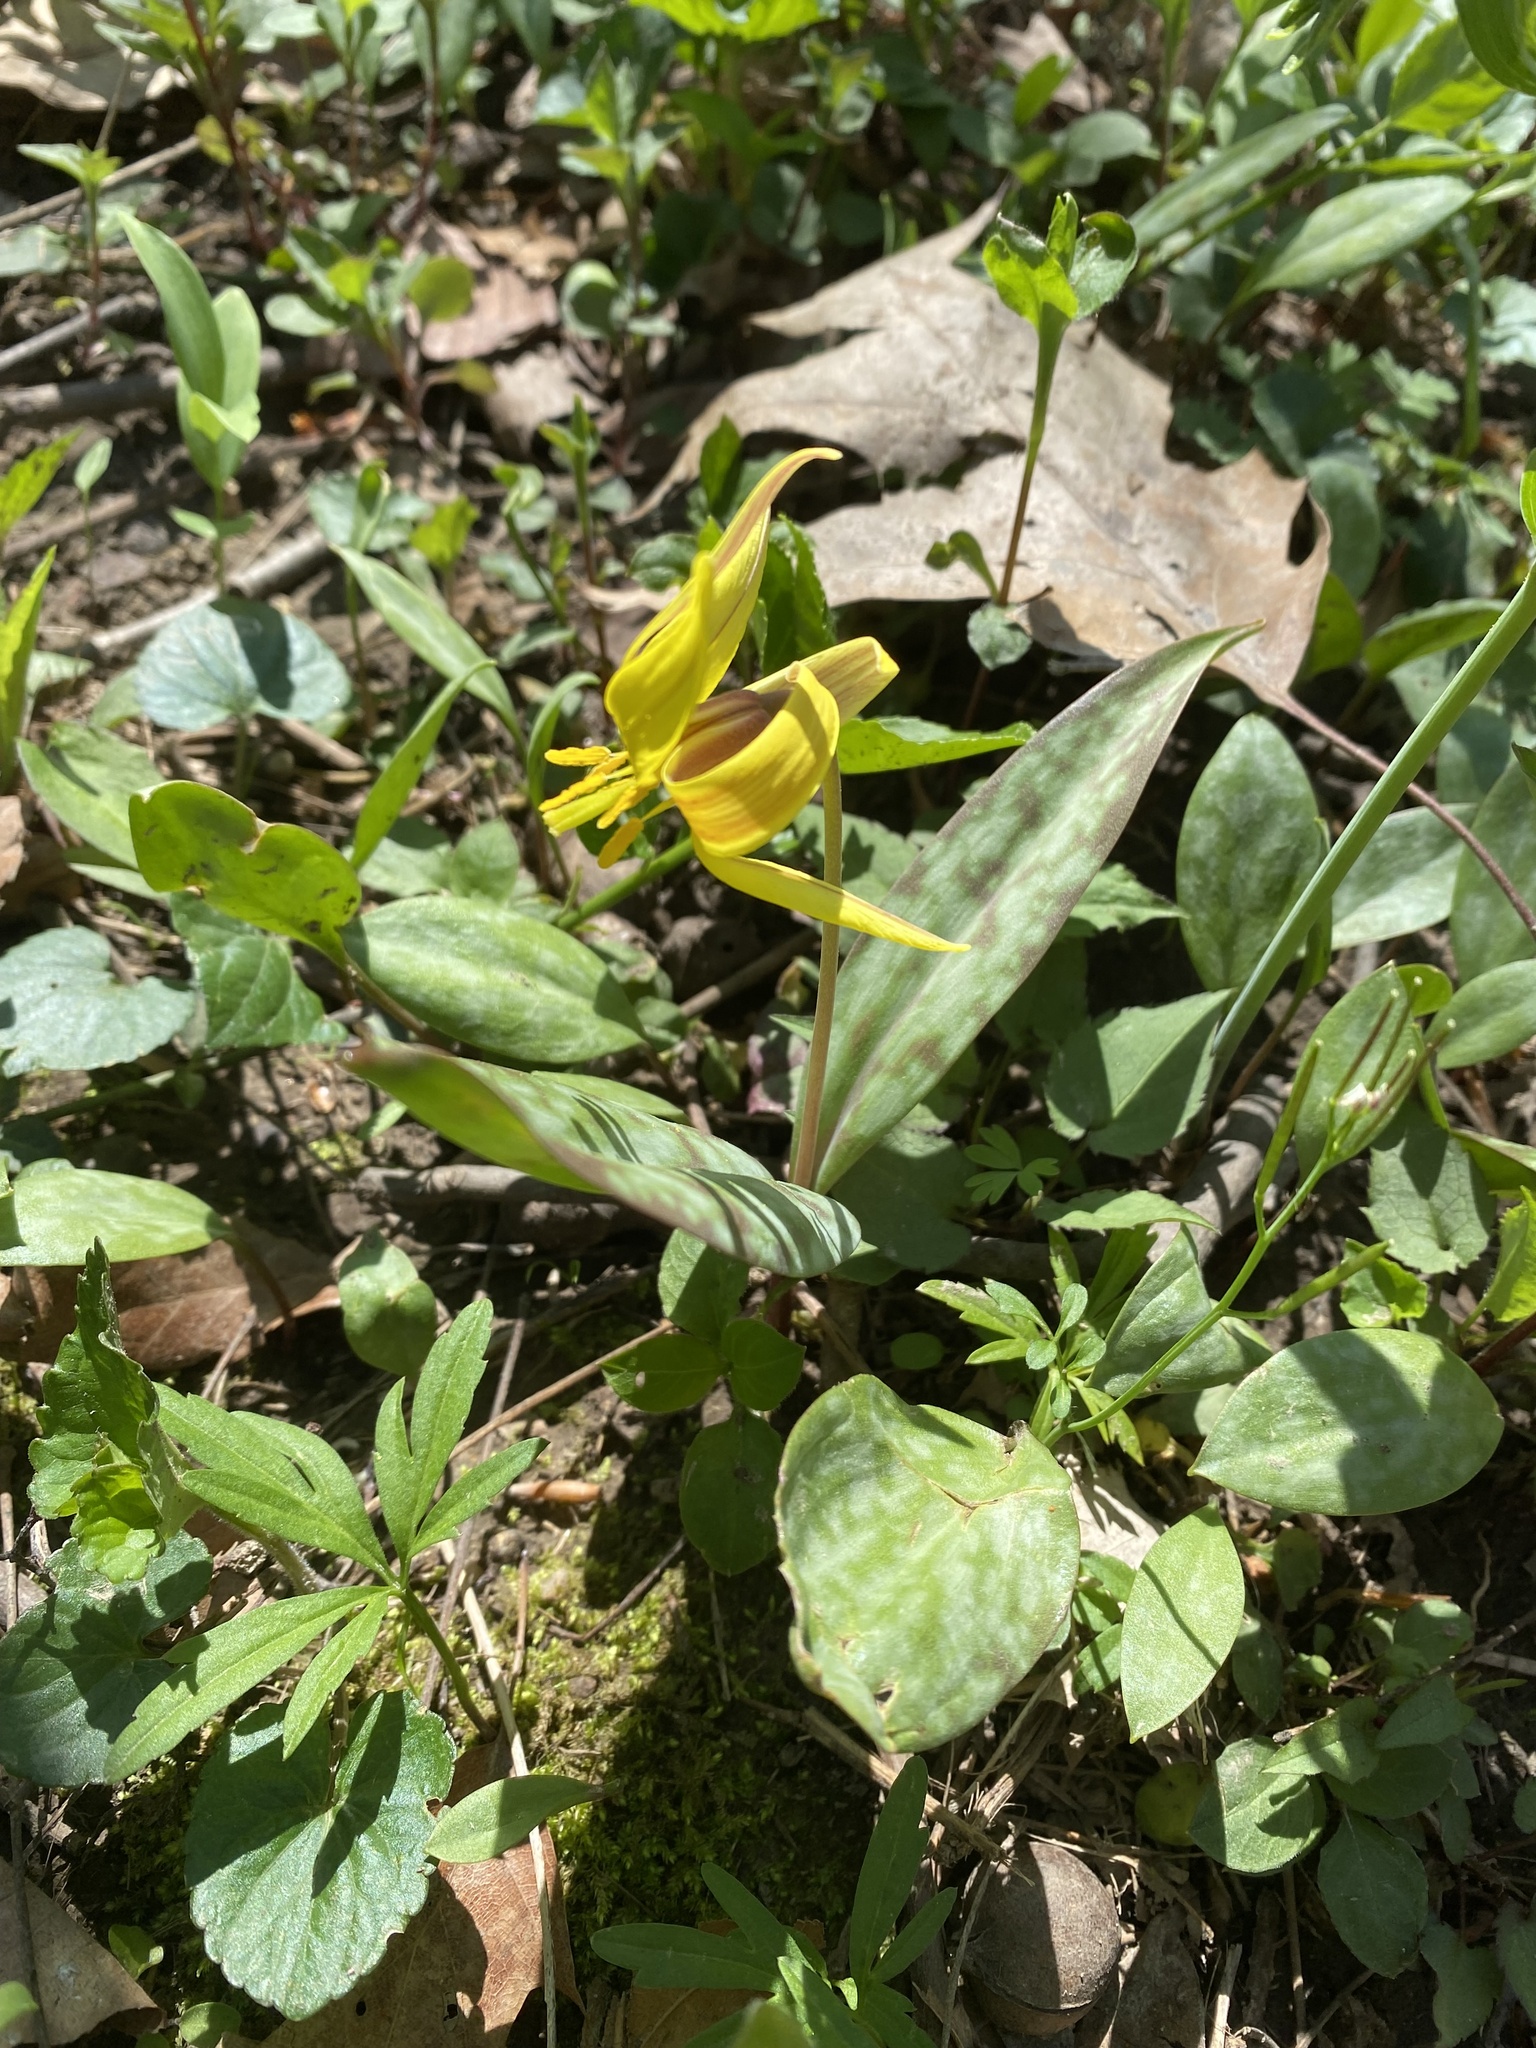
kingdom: Plantae
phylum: Tracheophyta
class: Liliopsida
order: Liliales
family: Liliaceae
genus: Erythronium
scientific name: Erythronium americanum
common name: Yellow adder's-tongue
